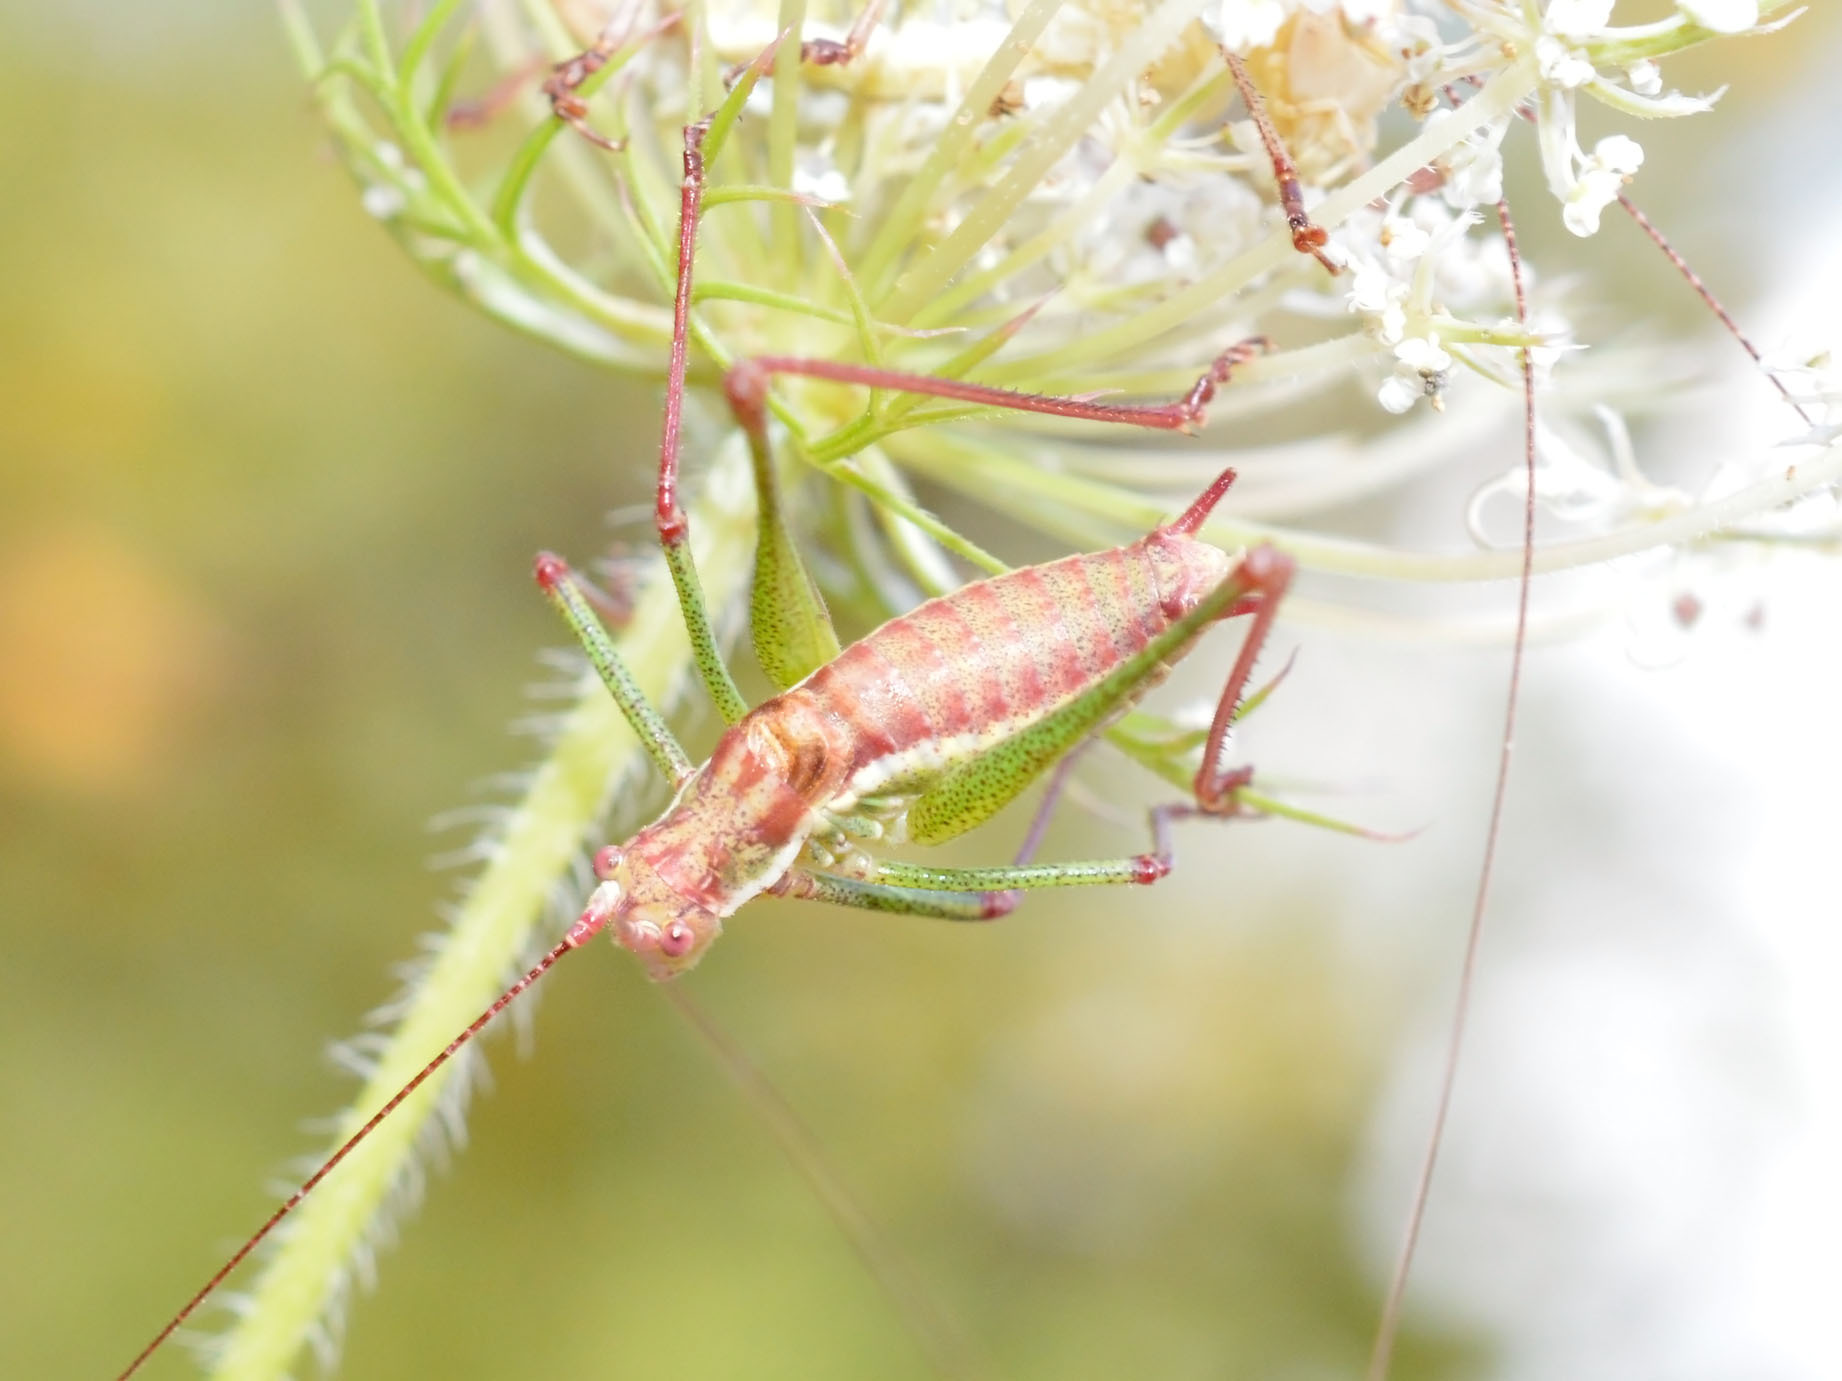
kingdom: Animalia
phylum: Arthropoda
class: Insecta
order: Orthoptera
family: Tettigoniidae
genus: Leptophyes
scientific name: Leptophyes albovittata
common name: Striped bush-cricket
